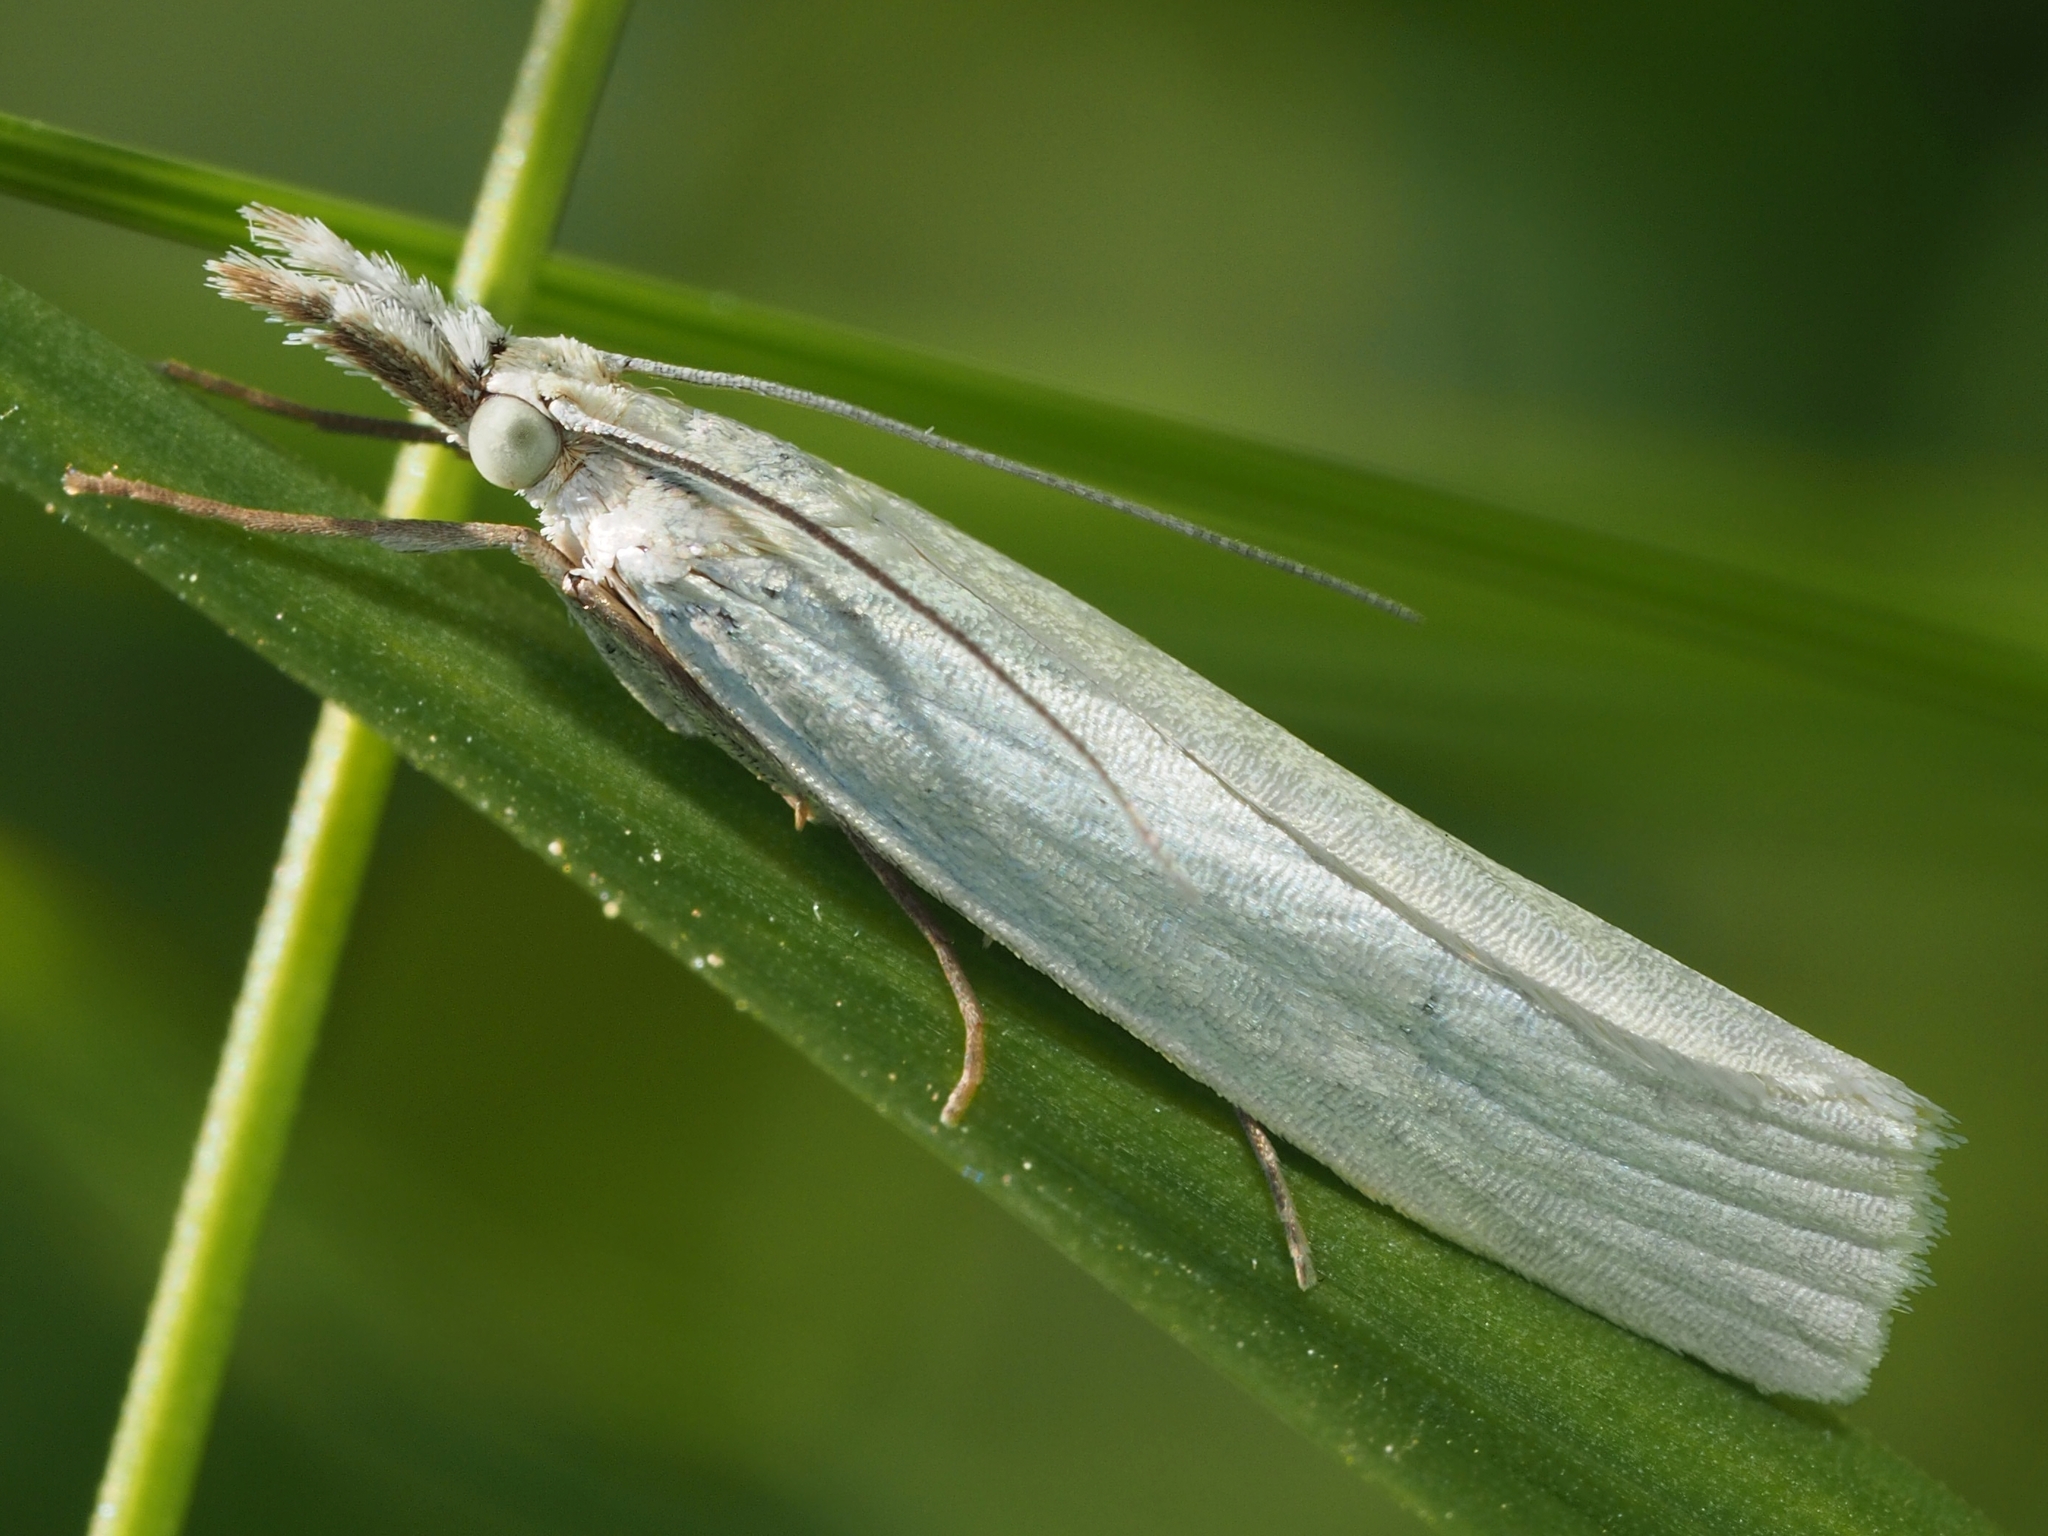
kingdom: Animalia
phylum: Arthropoda
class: Insecta
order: Lepidoptera
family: Crambidae
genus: Crambus
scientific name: Crambus perlellus
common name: Yellow satin veneer
